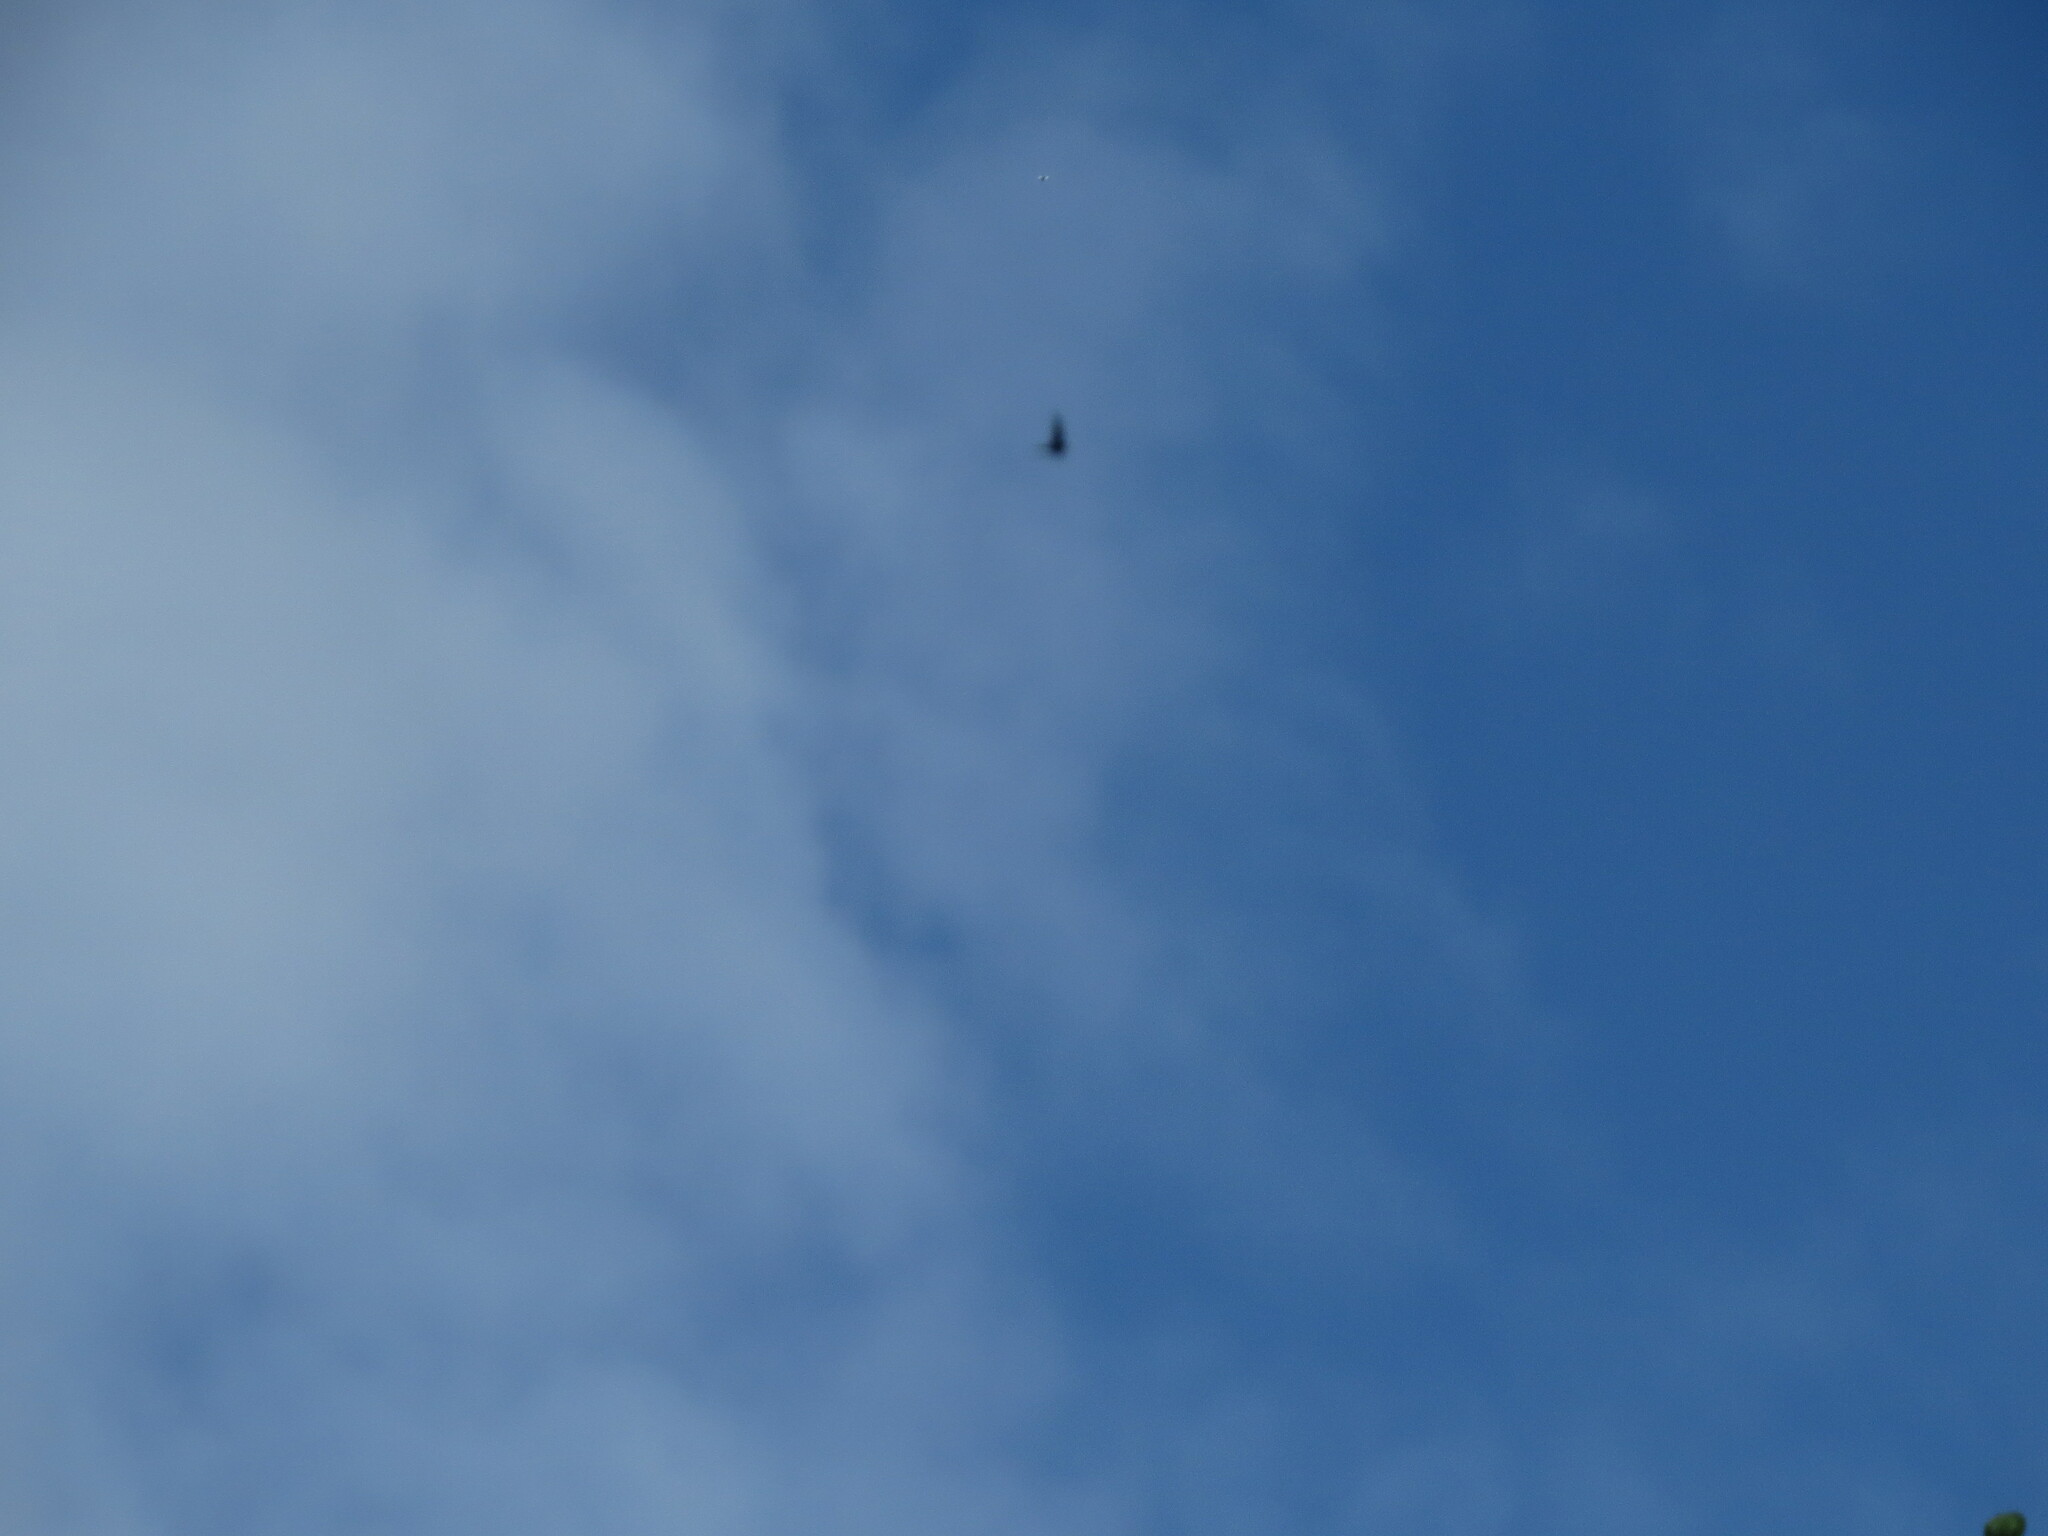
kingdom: Animalia
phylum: Chordata
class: Aves
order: Apodiformes
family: Apodidae
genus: Apus
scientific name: Apus apus
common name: Common swift
